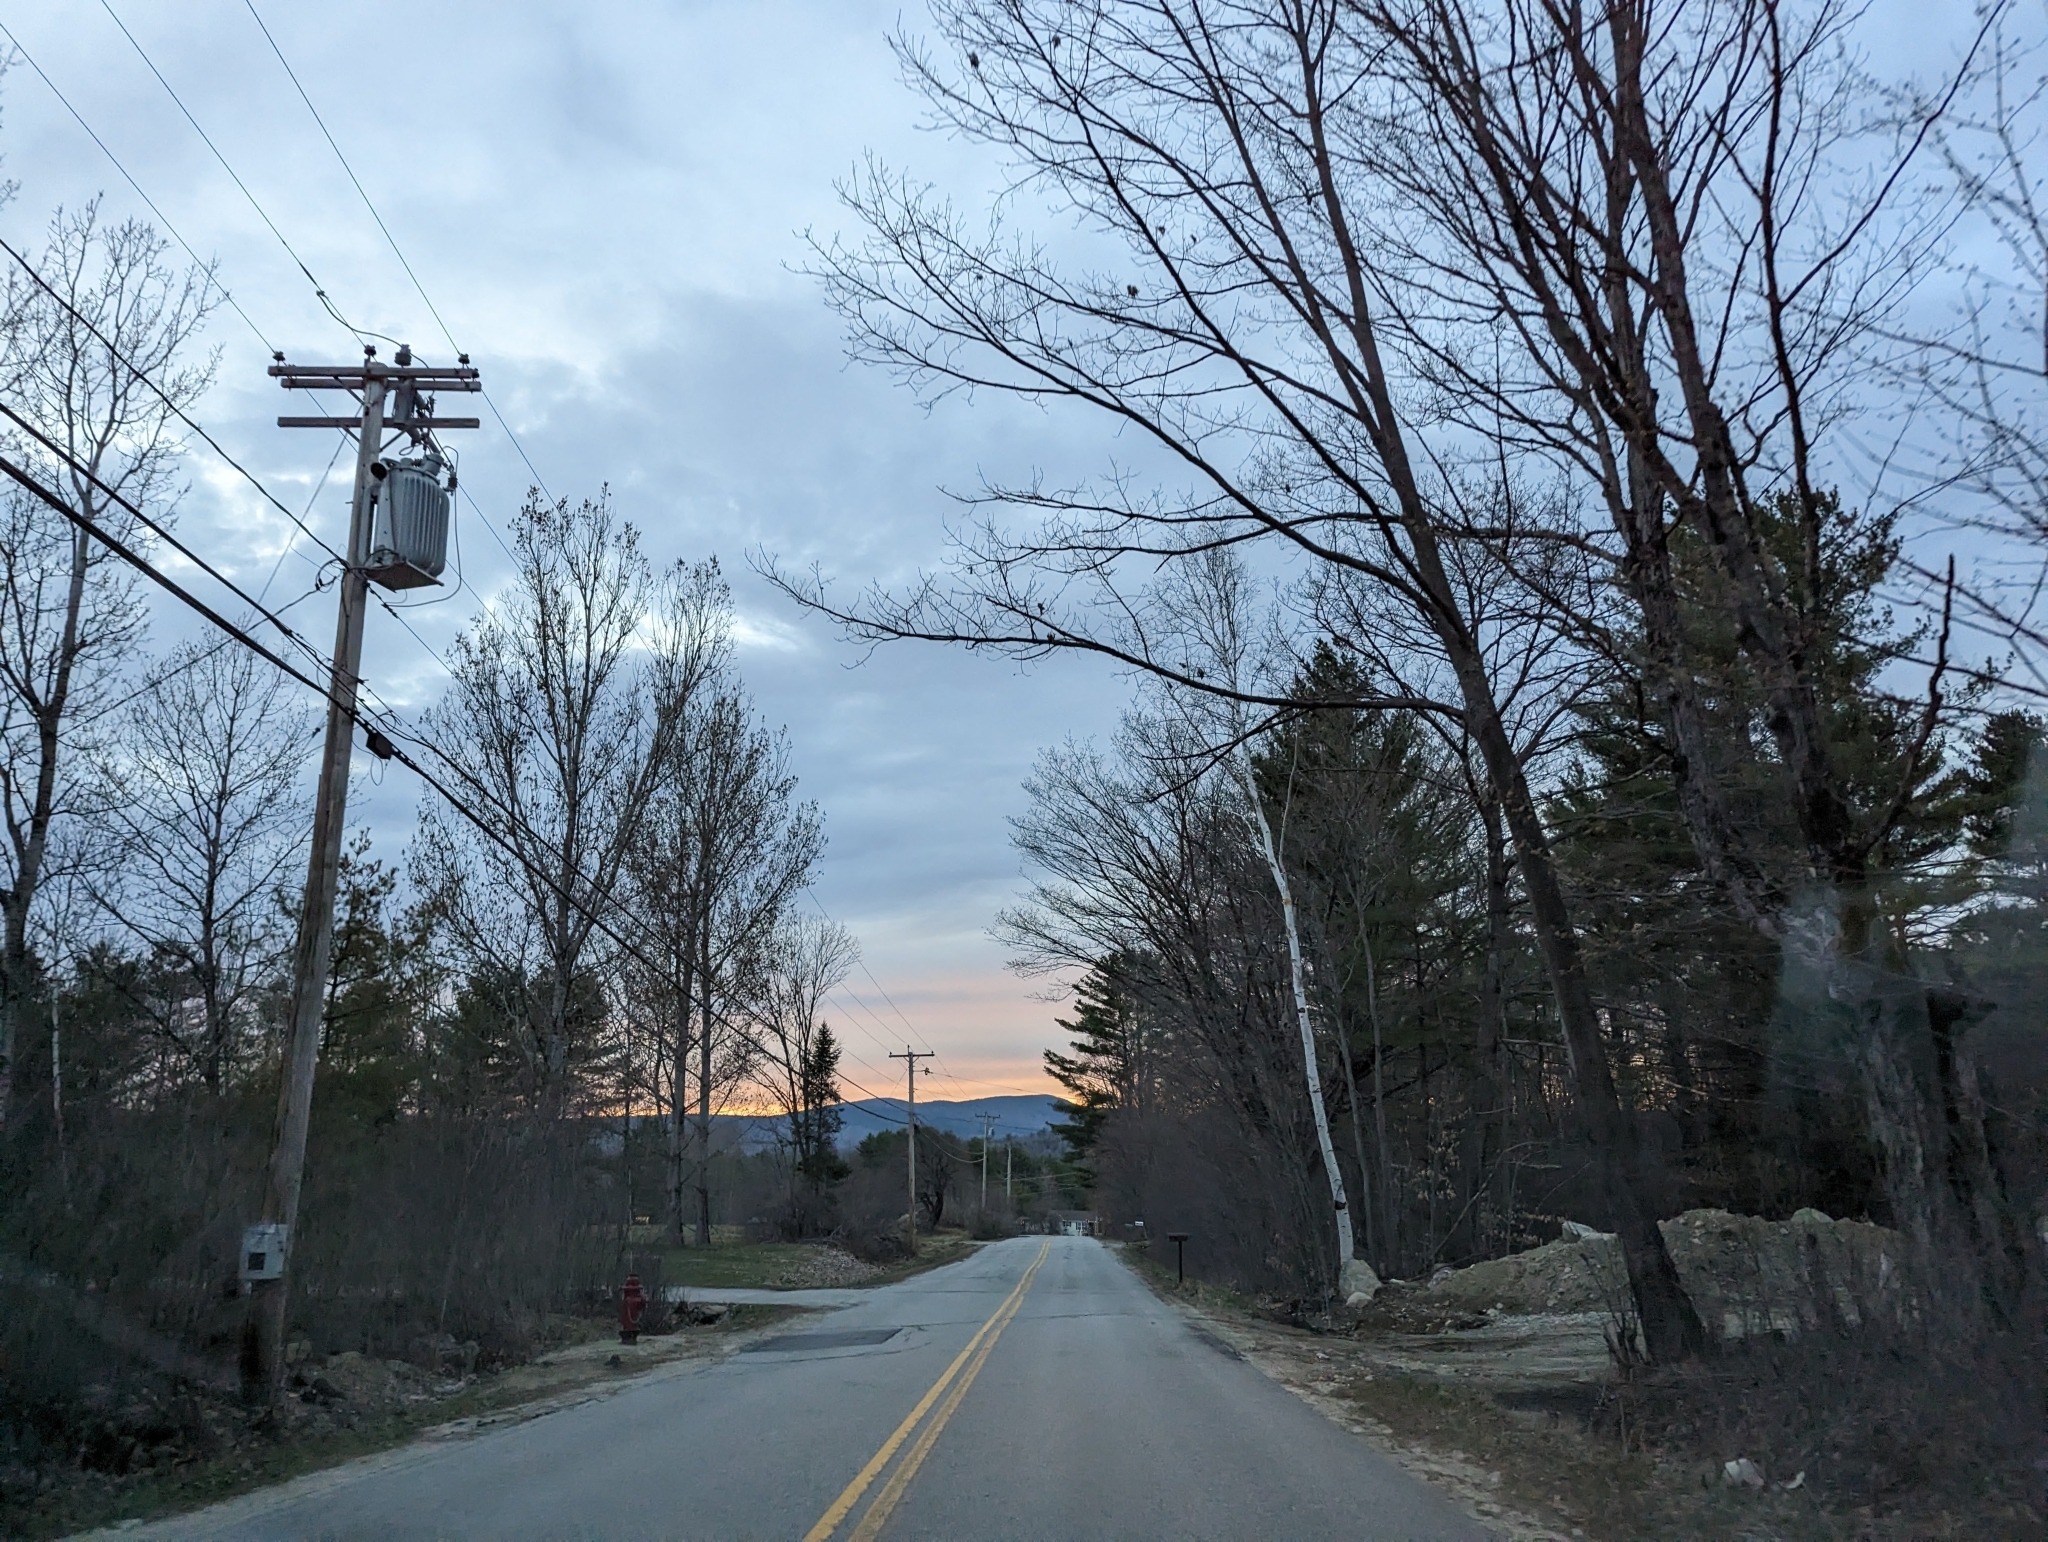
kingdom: Plantae
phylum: Tracheophyta
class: Pinopsida
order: Pinales
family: Pinaceae
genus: Pinus
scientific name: Pinus strobus
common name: Weymouth pine
